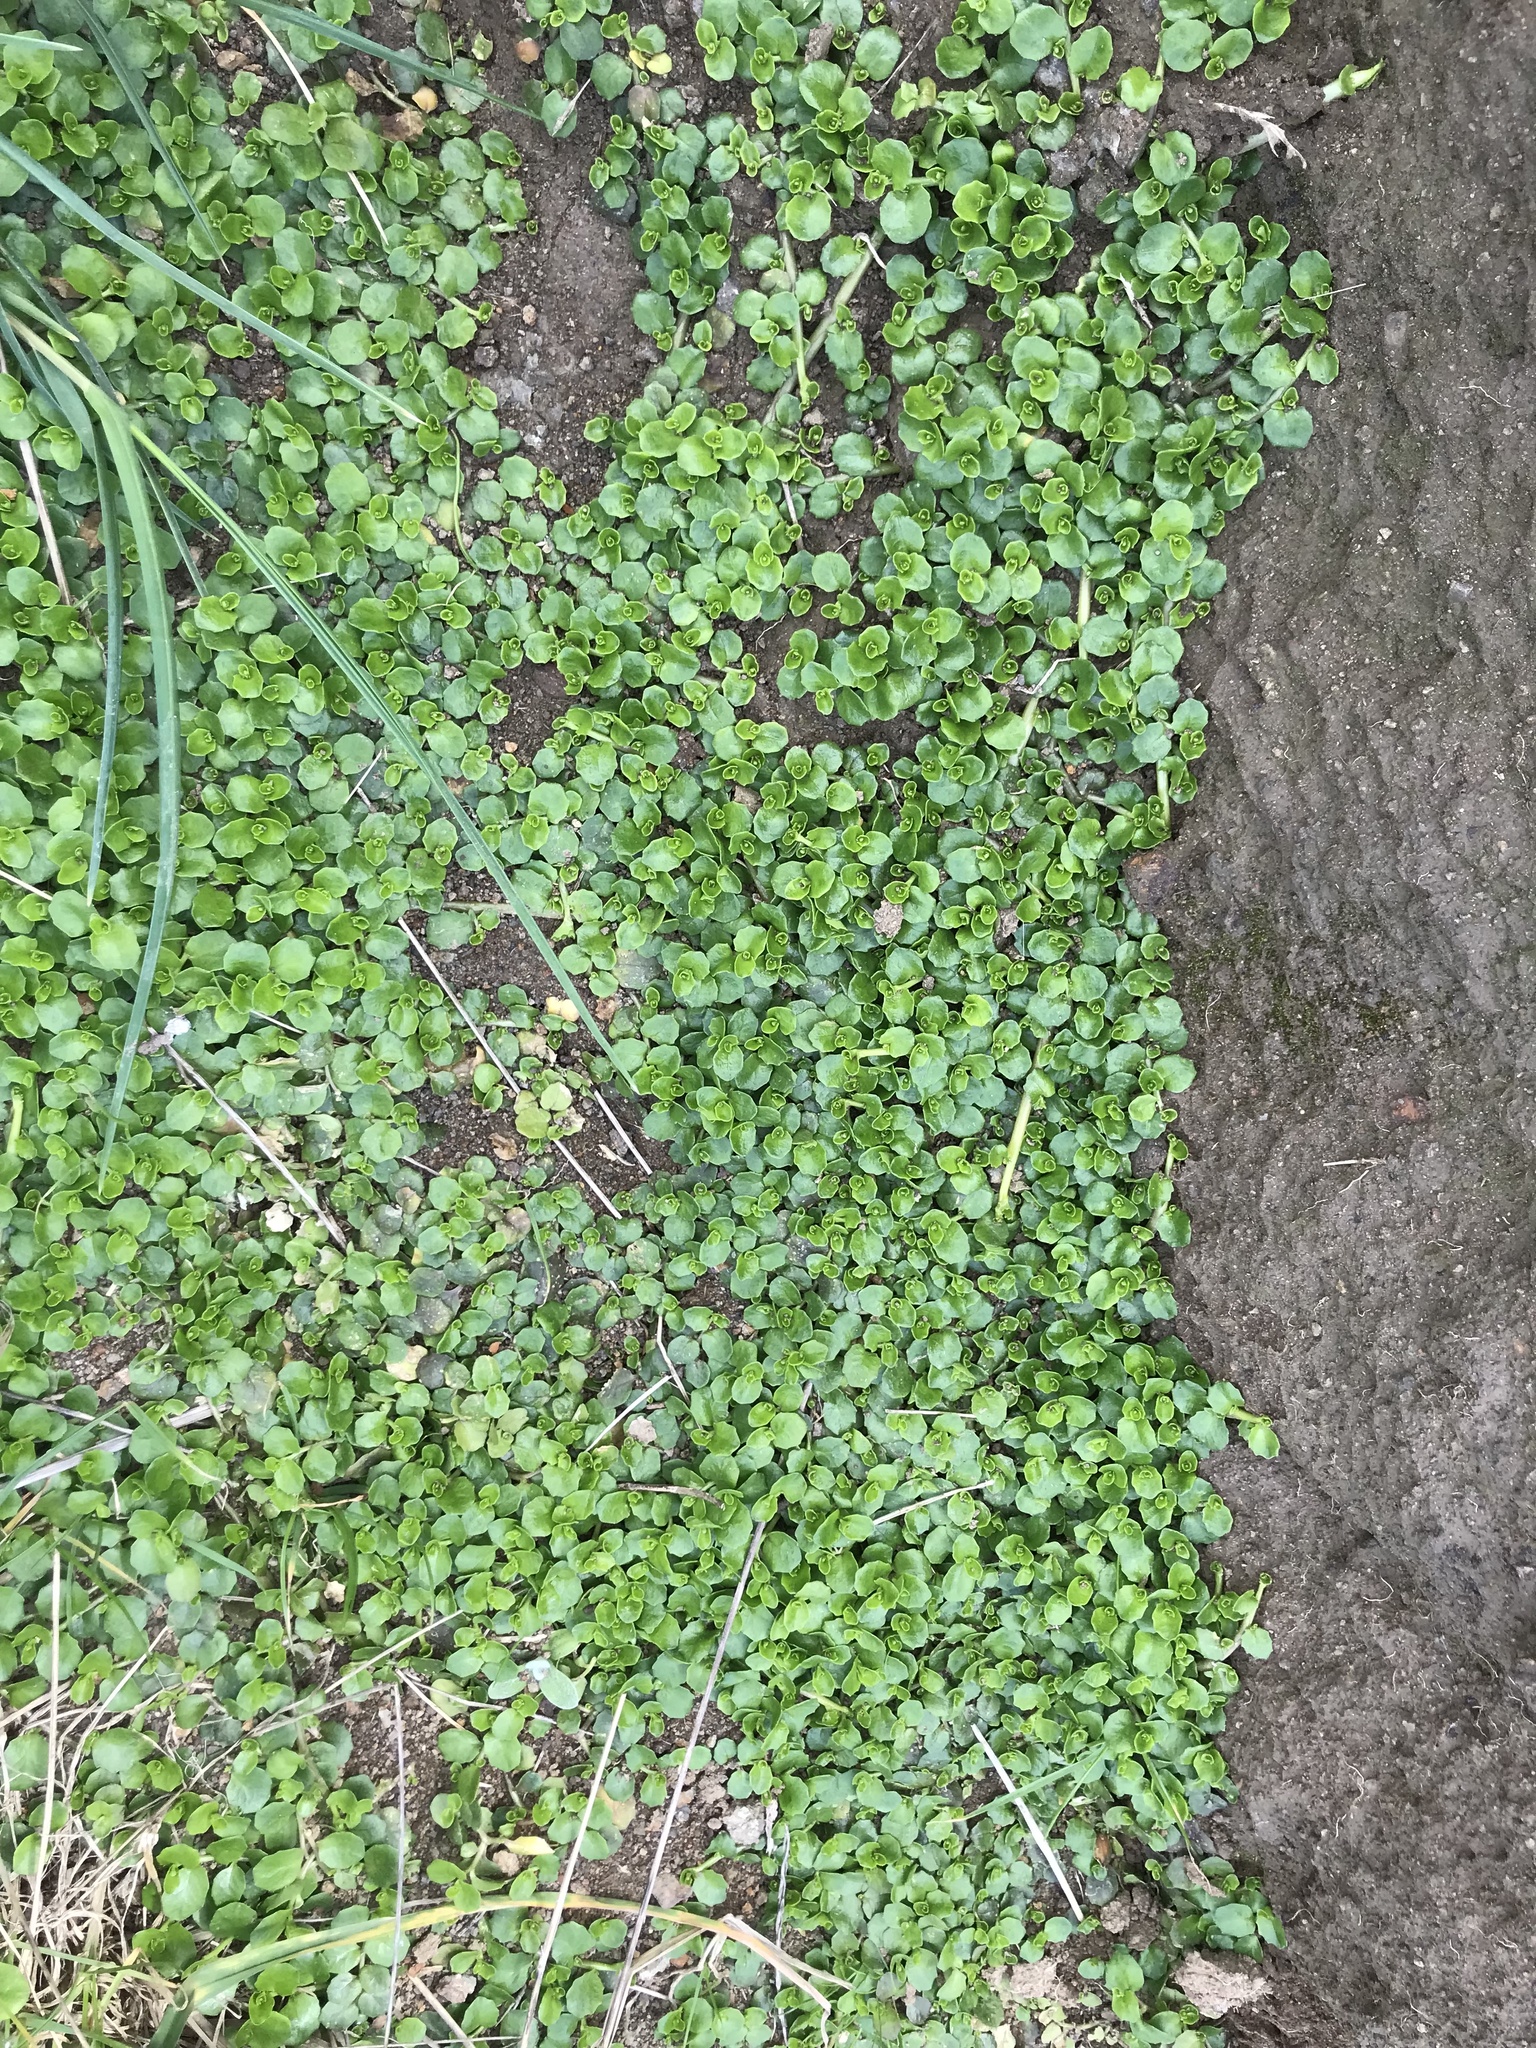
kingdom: Plantae
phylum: Tracheophyta
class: Magnoliopsida
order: Asterales
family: Campanulaceae
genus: Lobelia
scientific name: Lobelia arenaria
